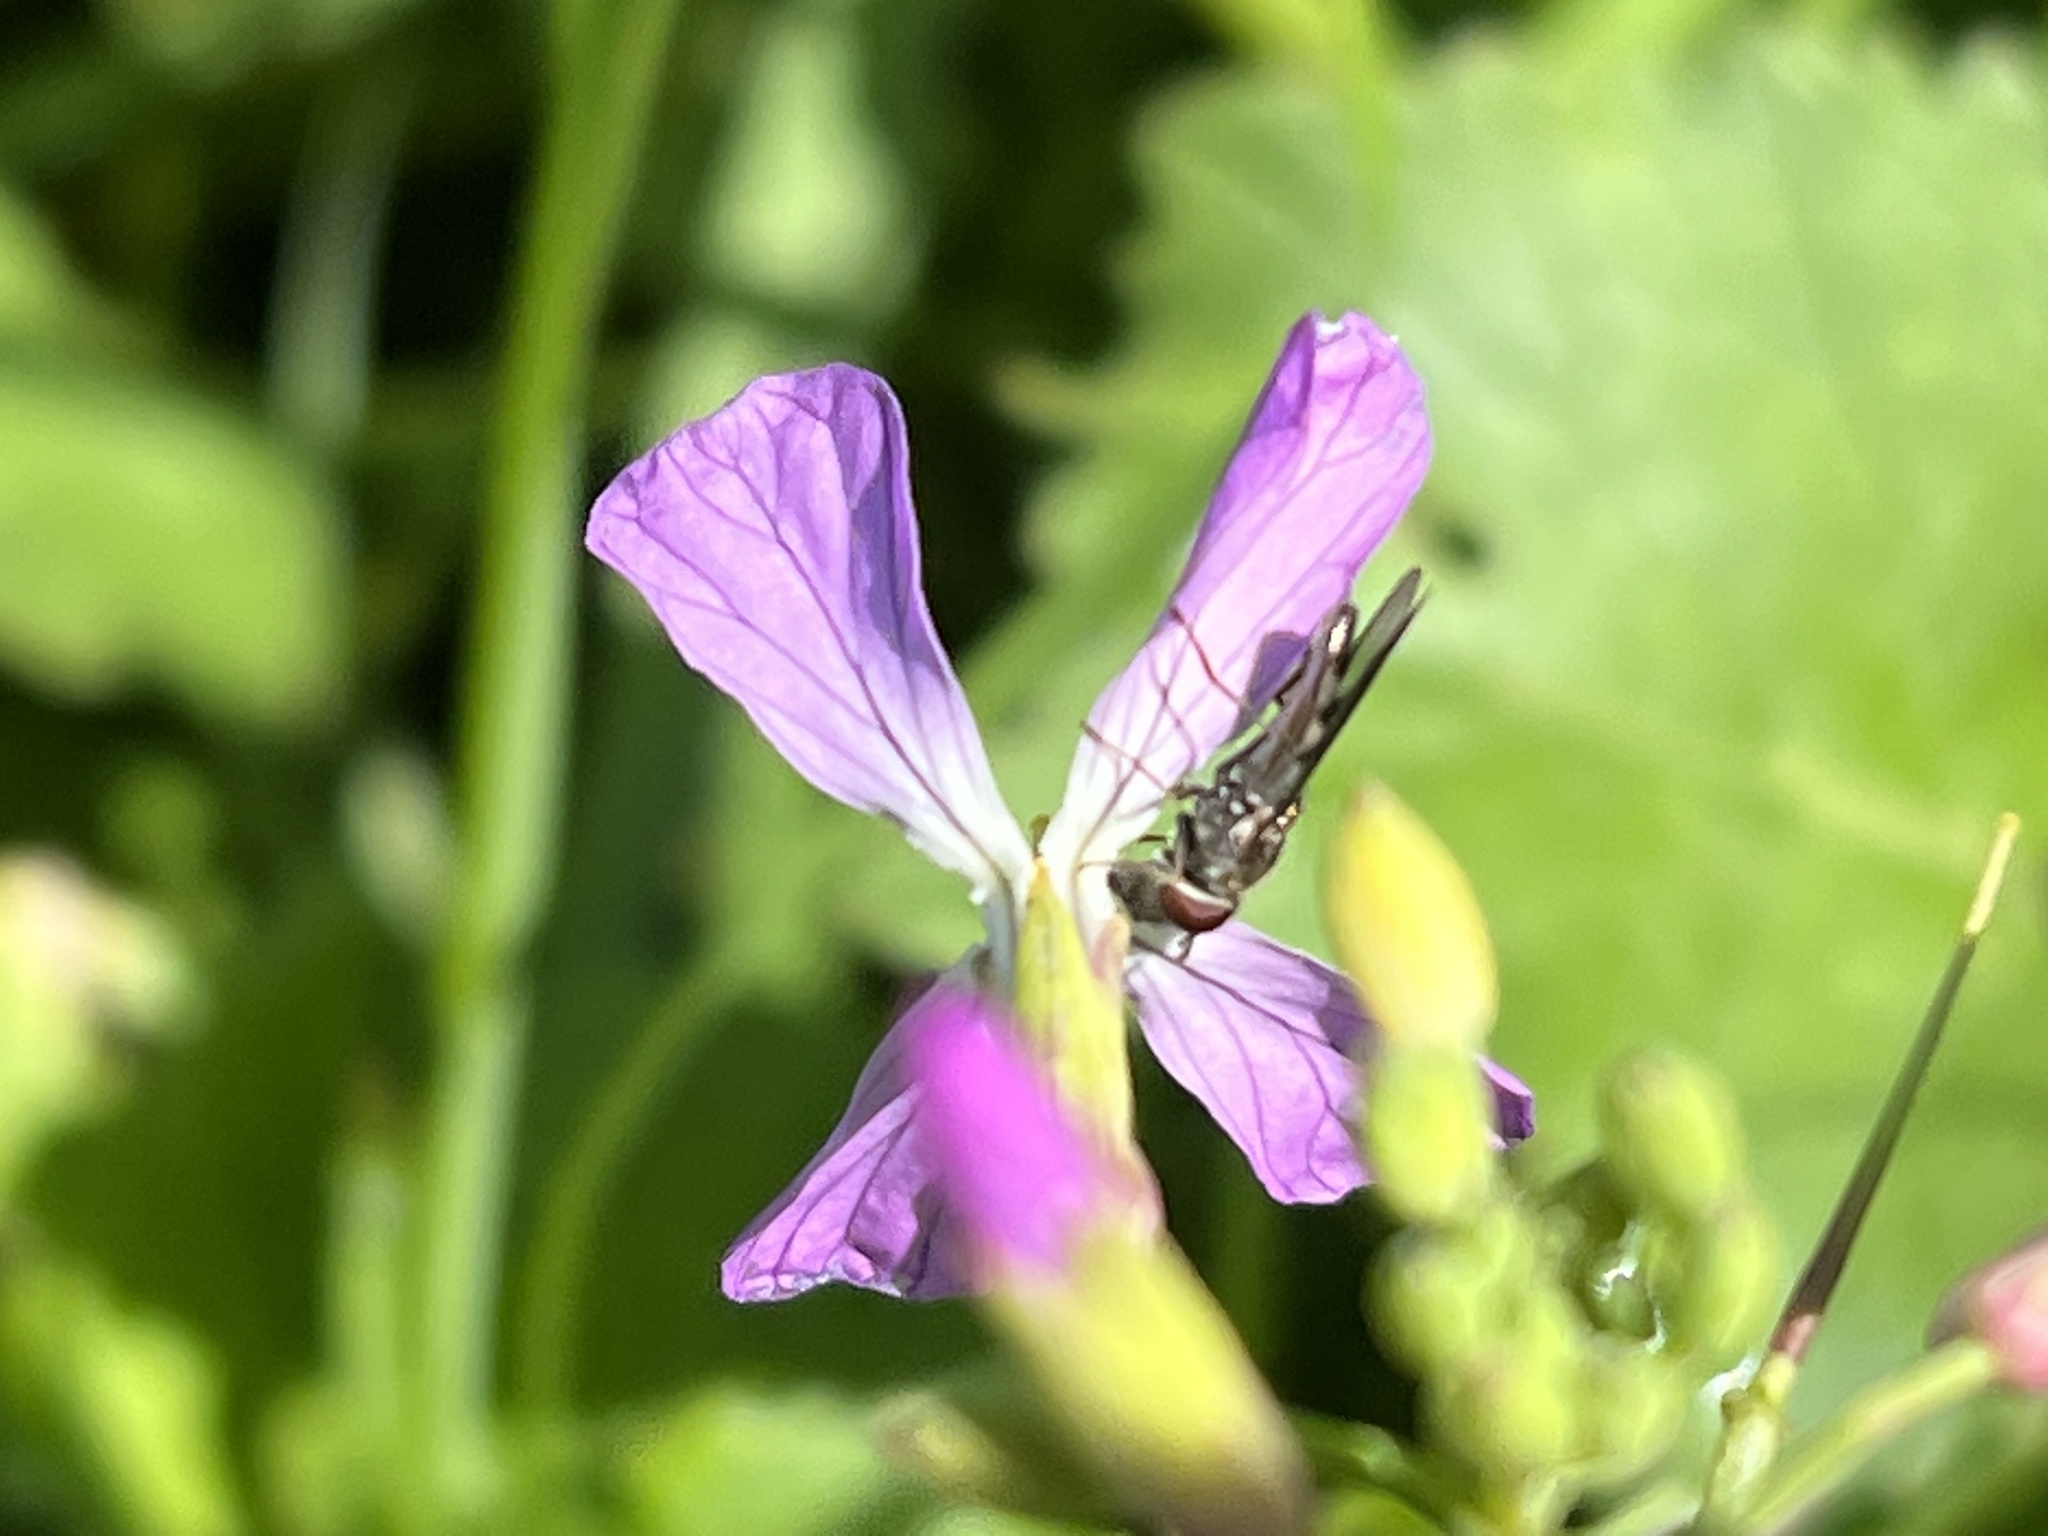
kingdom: Animalia
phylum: Arthropoda
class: Insecta
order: Diptera
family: Syrphidae
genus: Platycheirus
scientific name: Platycheirus trichopus
